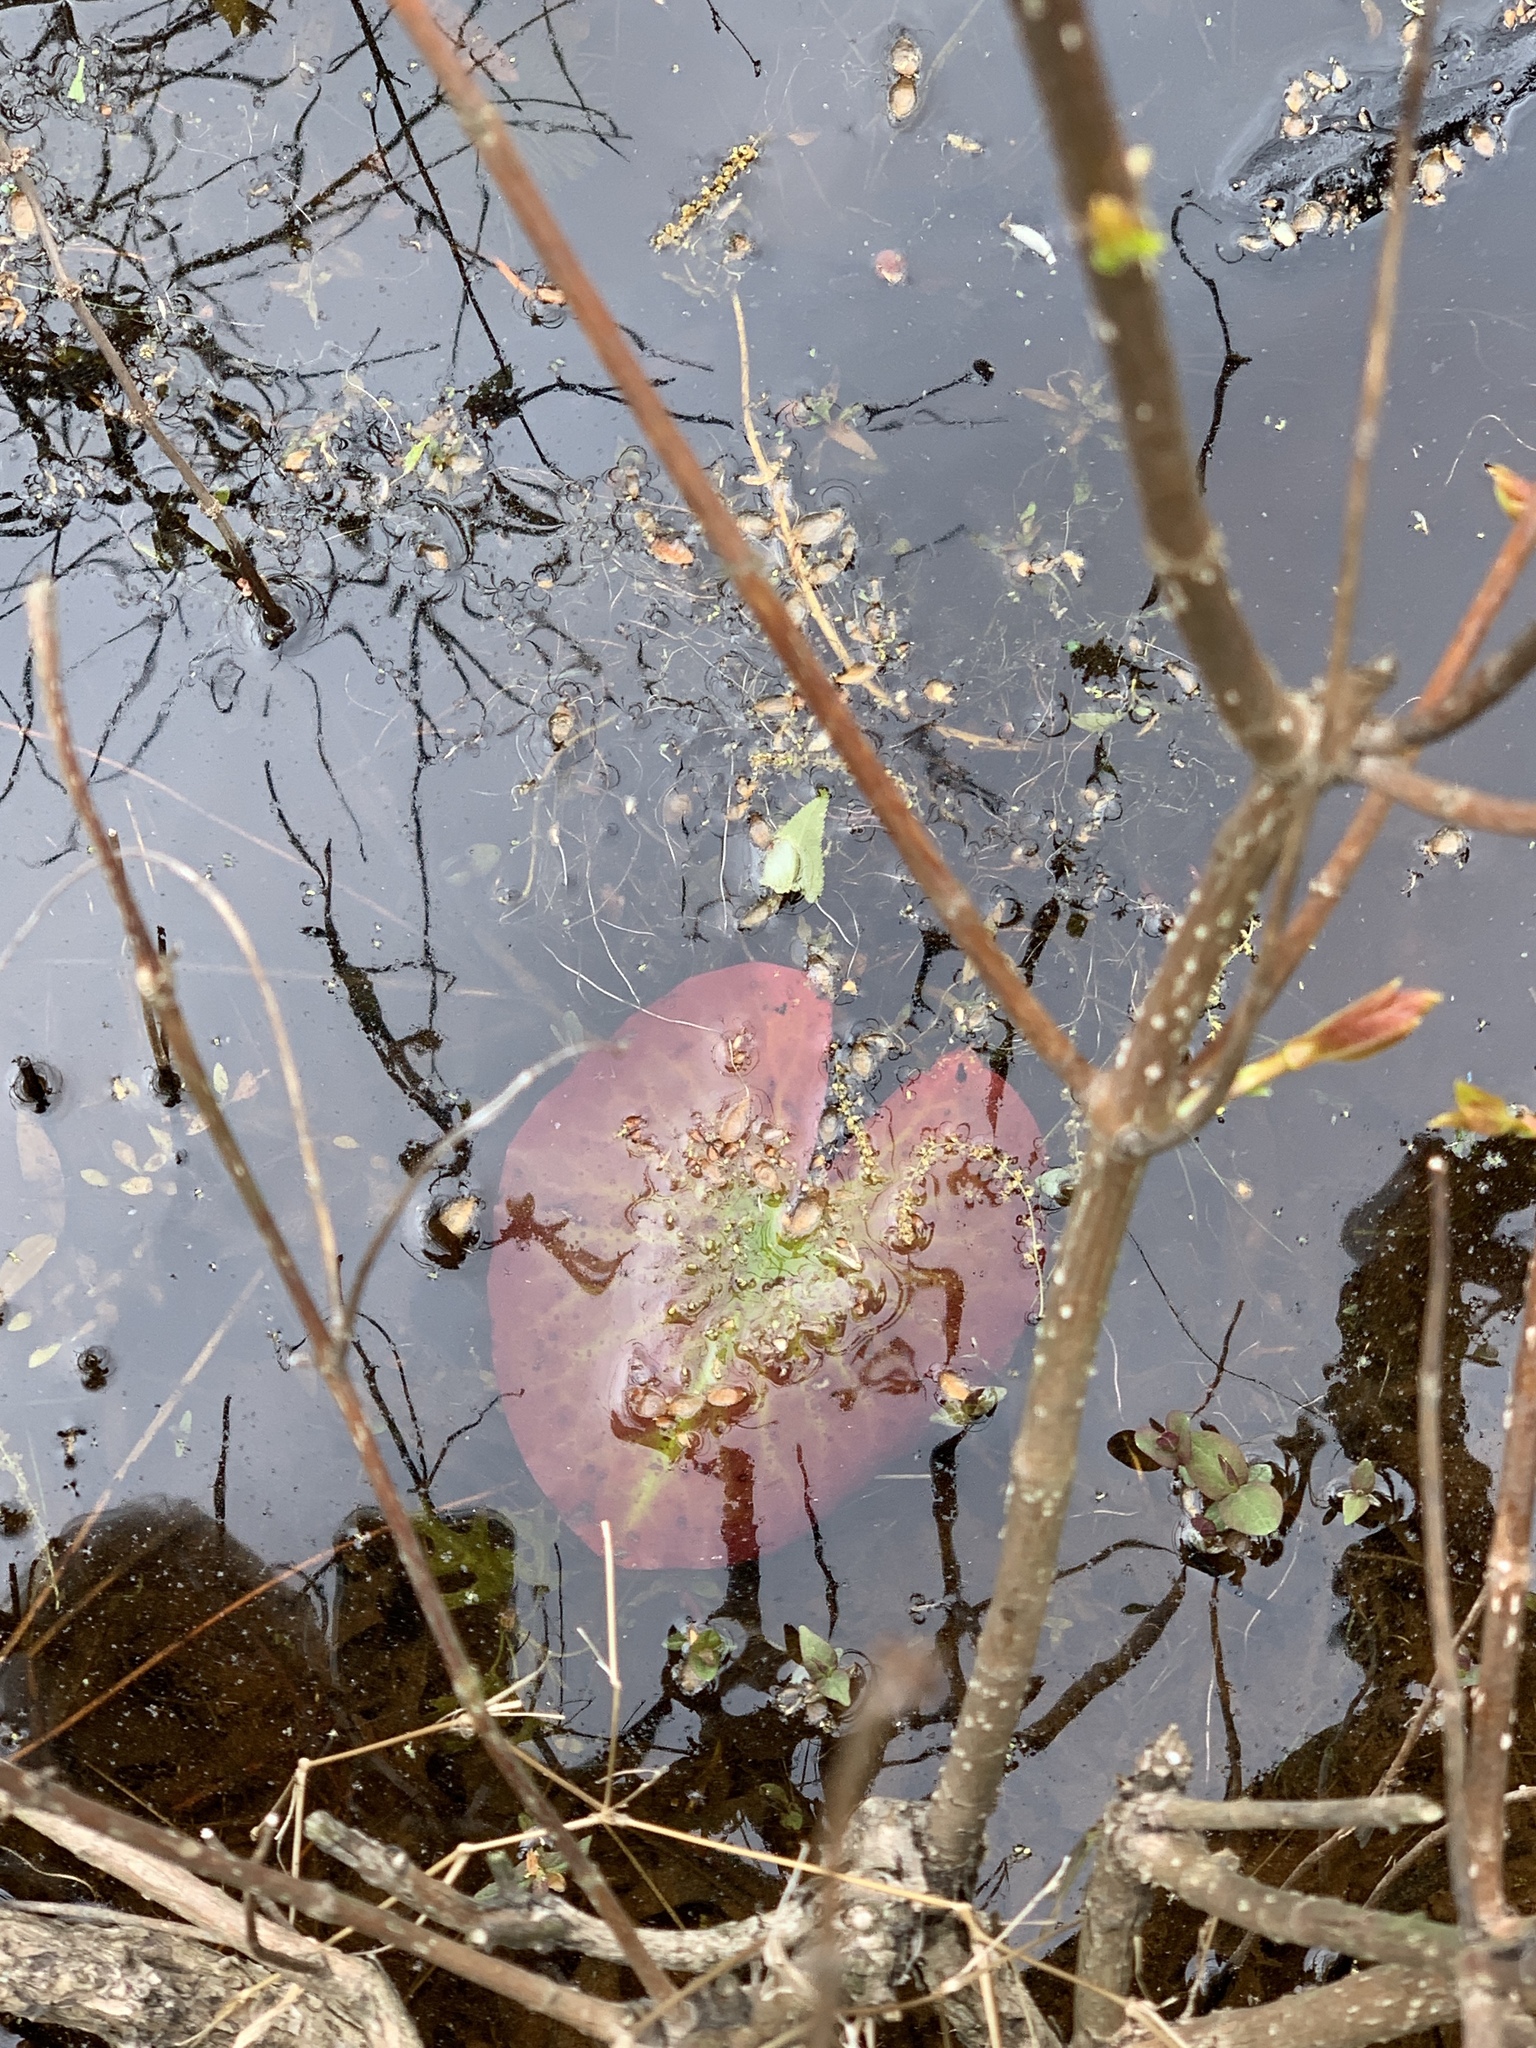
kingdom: Plantae
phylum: Tracheophyta
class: Magnoliopsida
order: Nymphaeales
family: Nymphaeaceae
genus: Nymphaea
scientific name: Nymphaea odorata
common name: Fragrant water-lily
